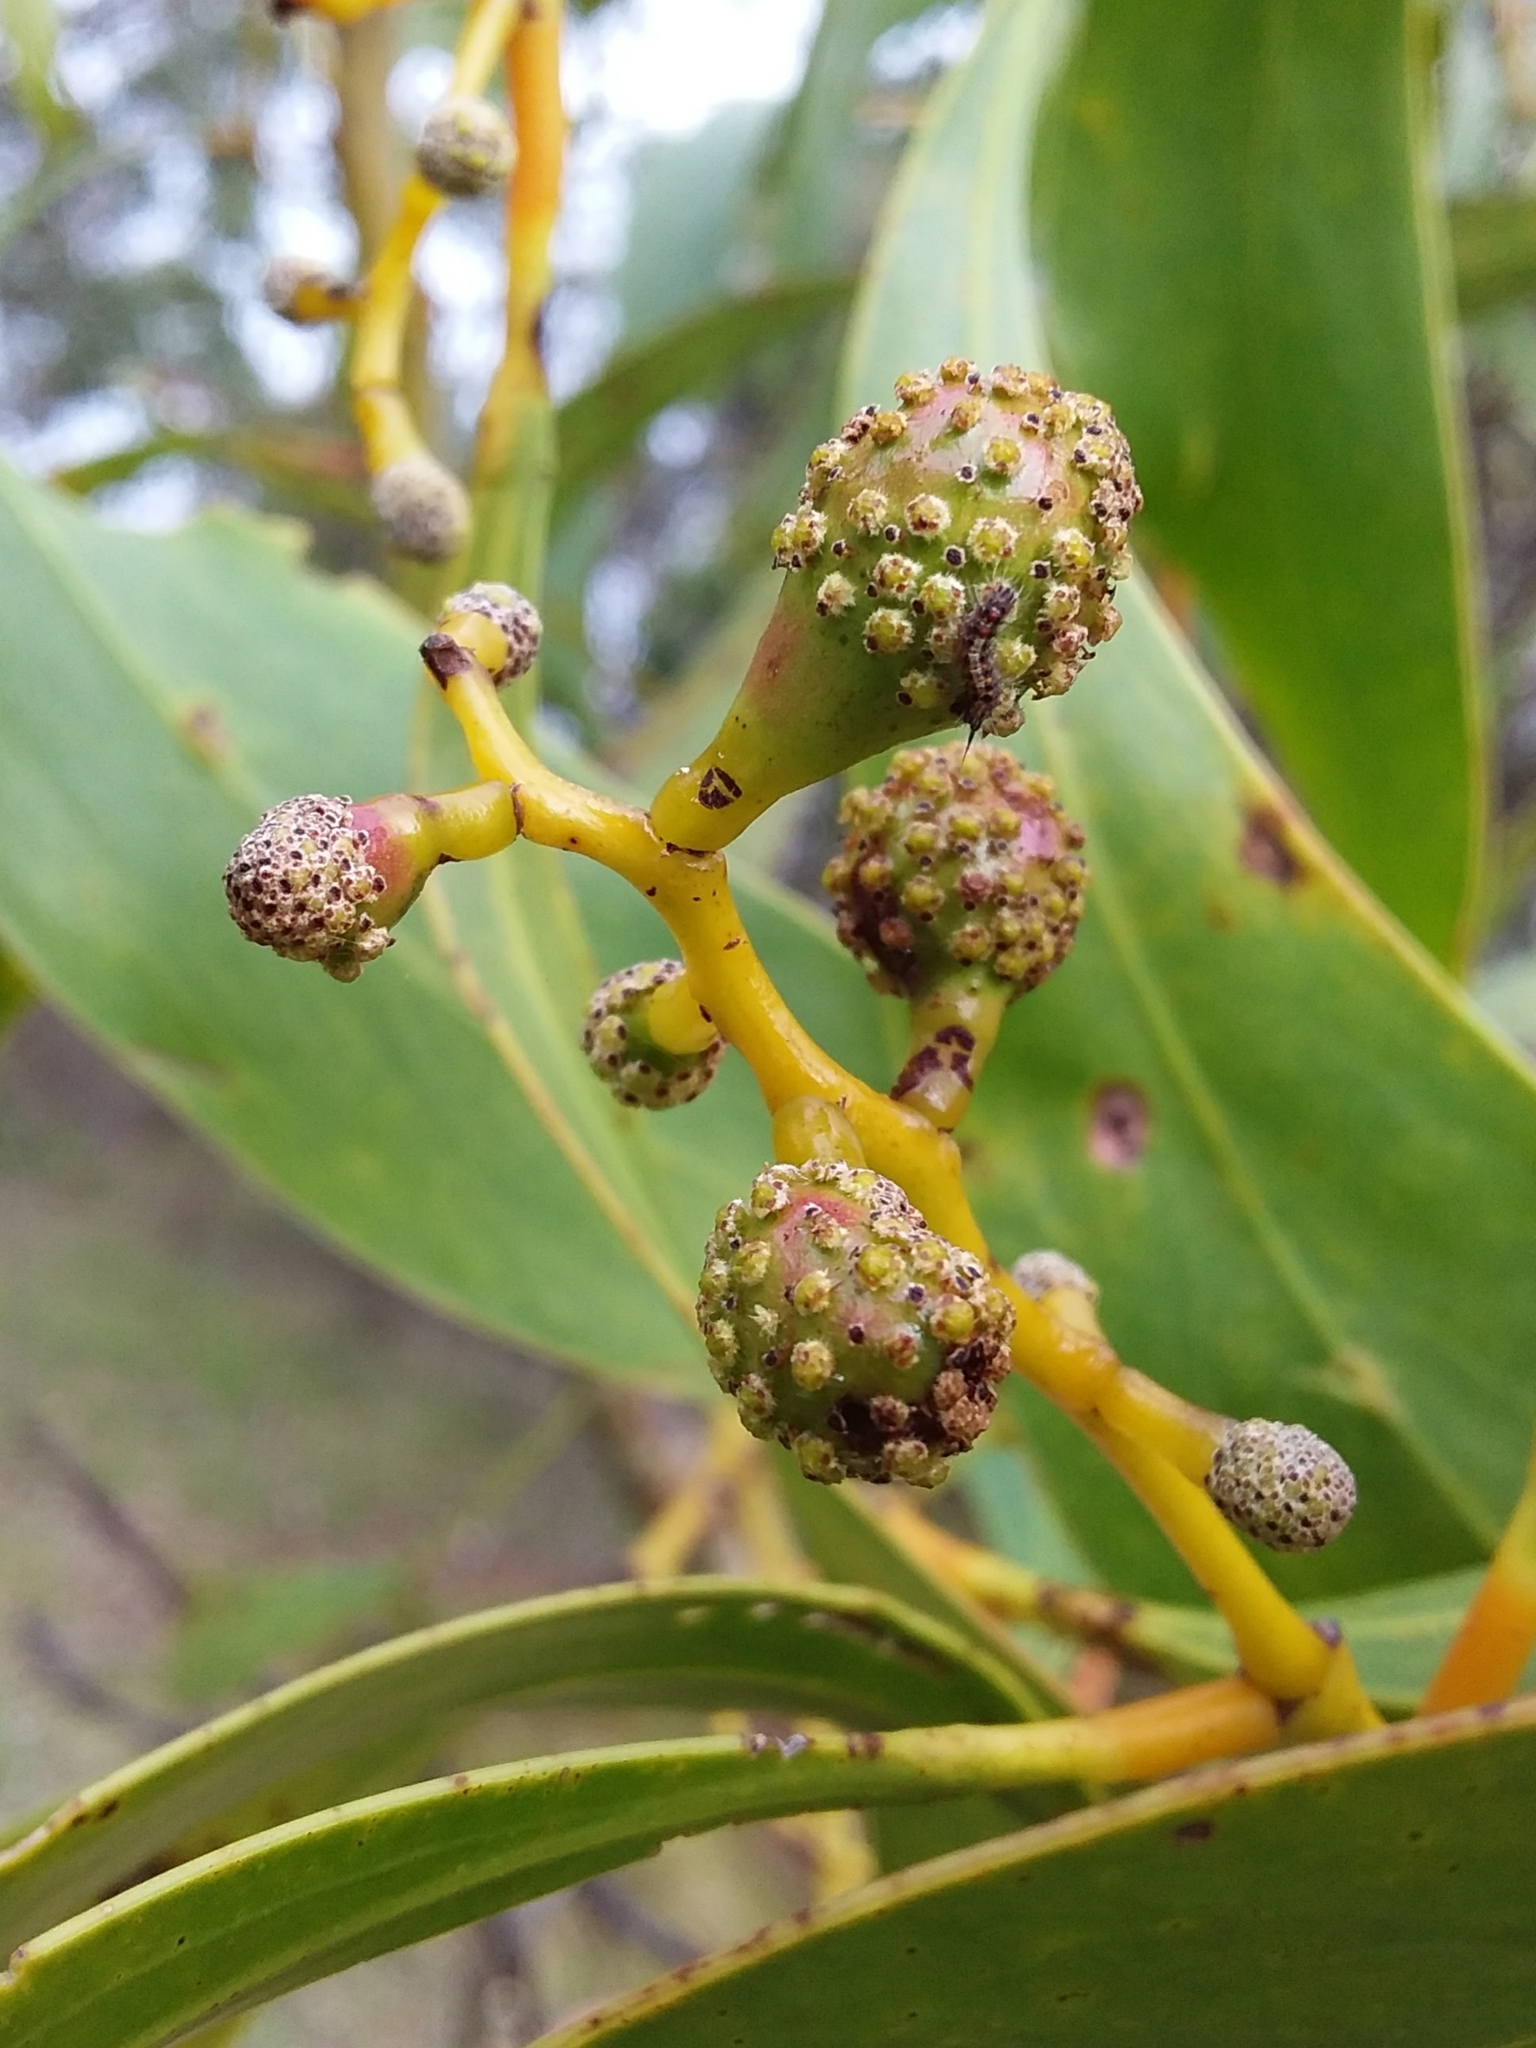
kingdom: Animalia
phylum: Arthropoda
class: Insecta
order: Hymenoptera
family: Pteromalidae
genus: Trichilogaster
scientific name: Trichilogaster signiventris
